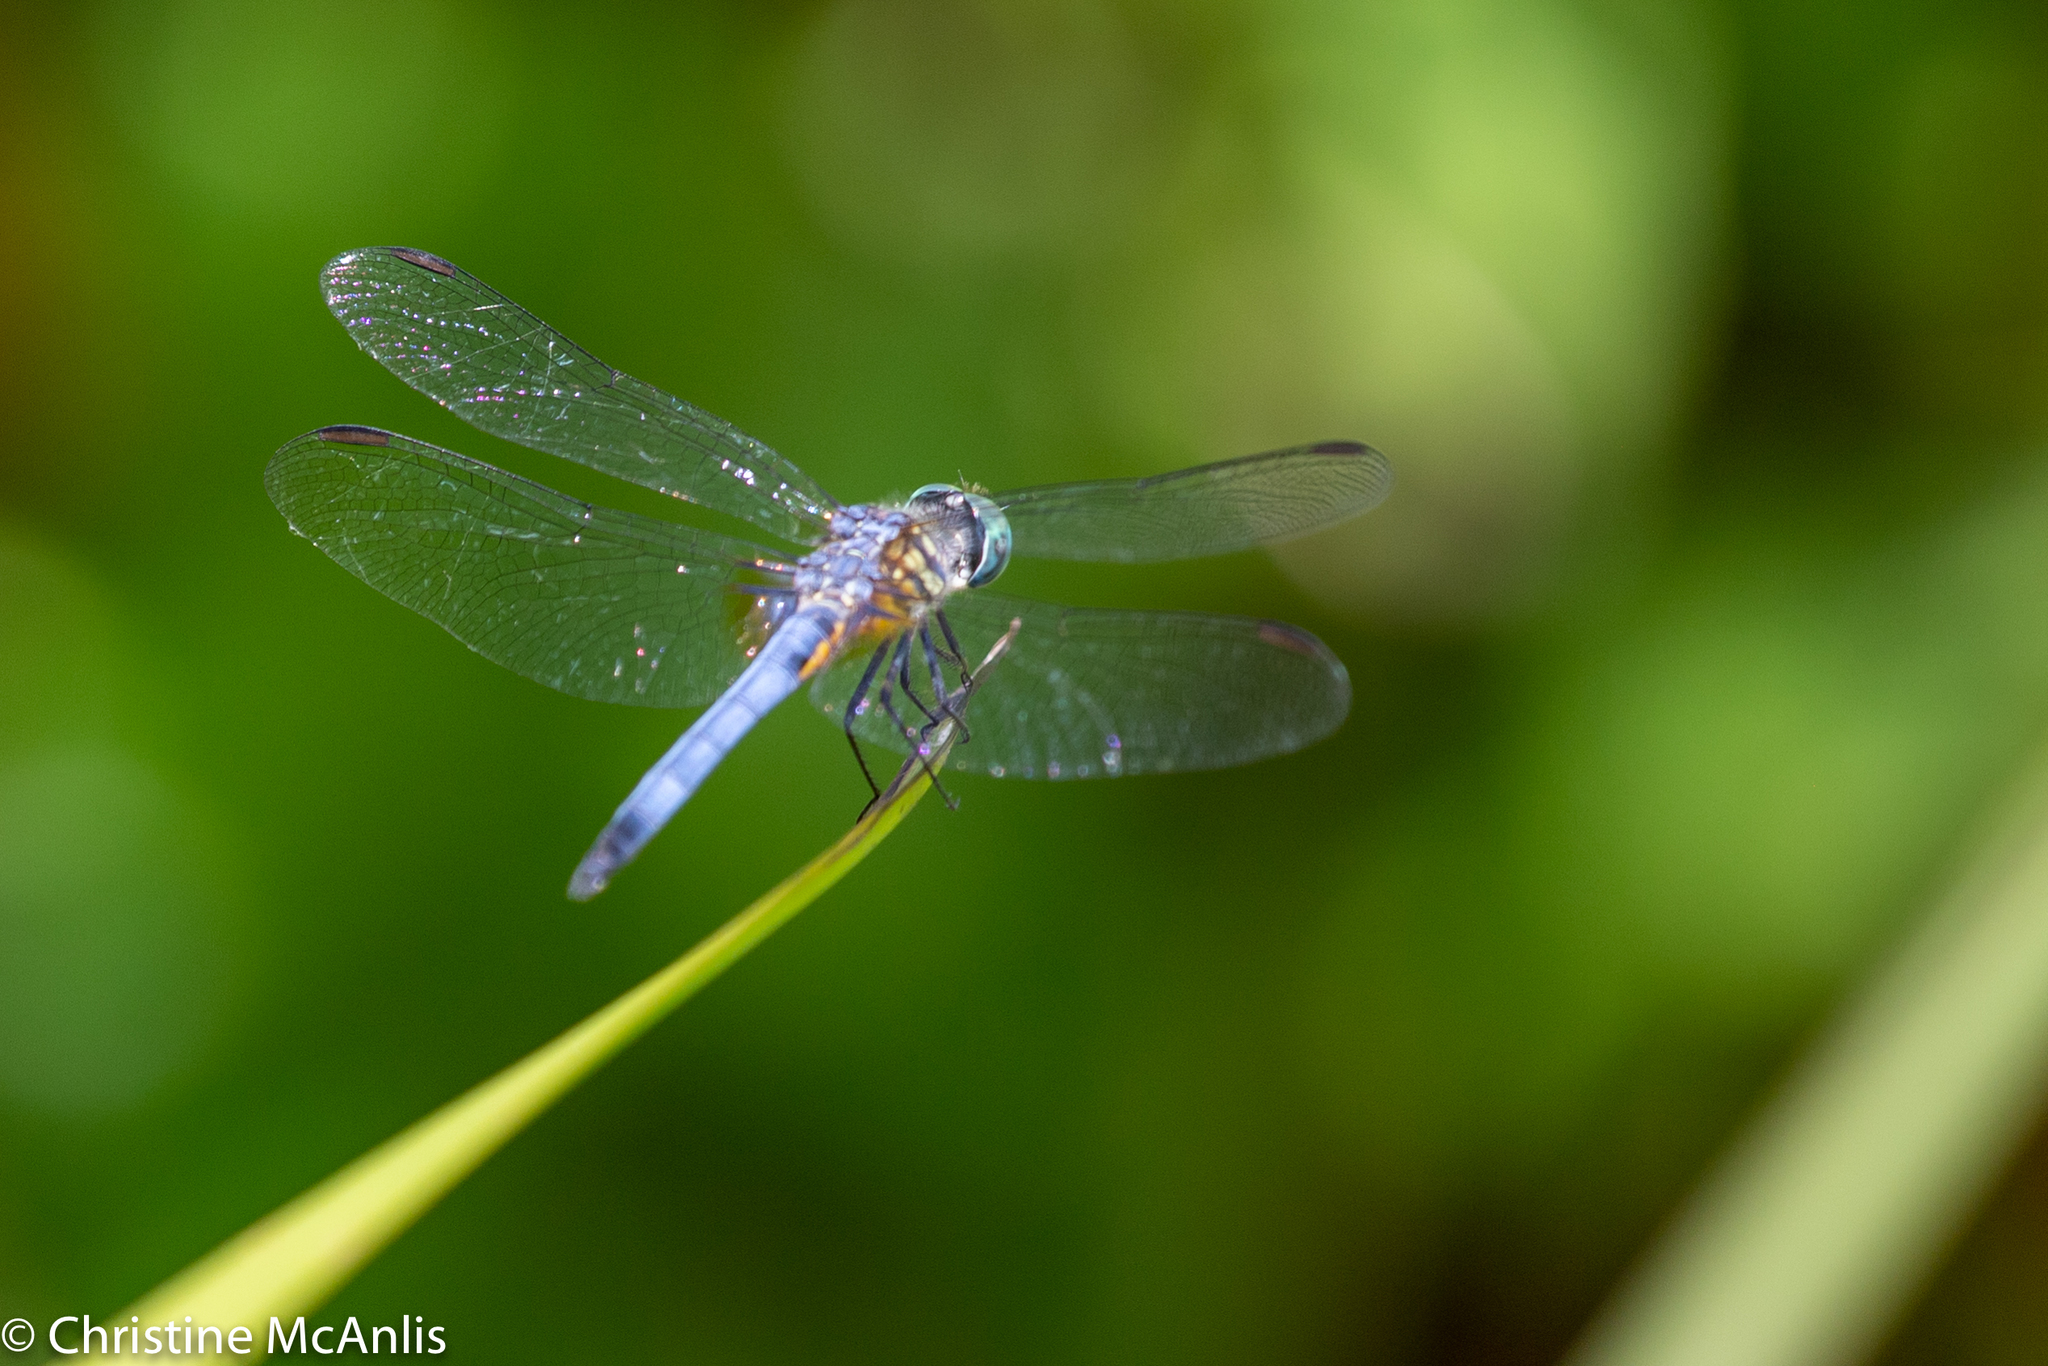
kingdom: Animalia
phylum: Arthropoda
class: Insecta
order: Odonata
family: Libellulidae
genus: Pachydiplax
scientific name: Pachydiplax longipennis
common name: Blue dasher
